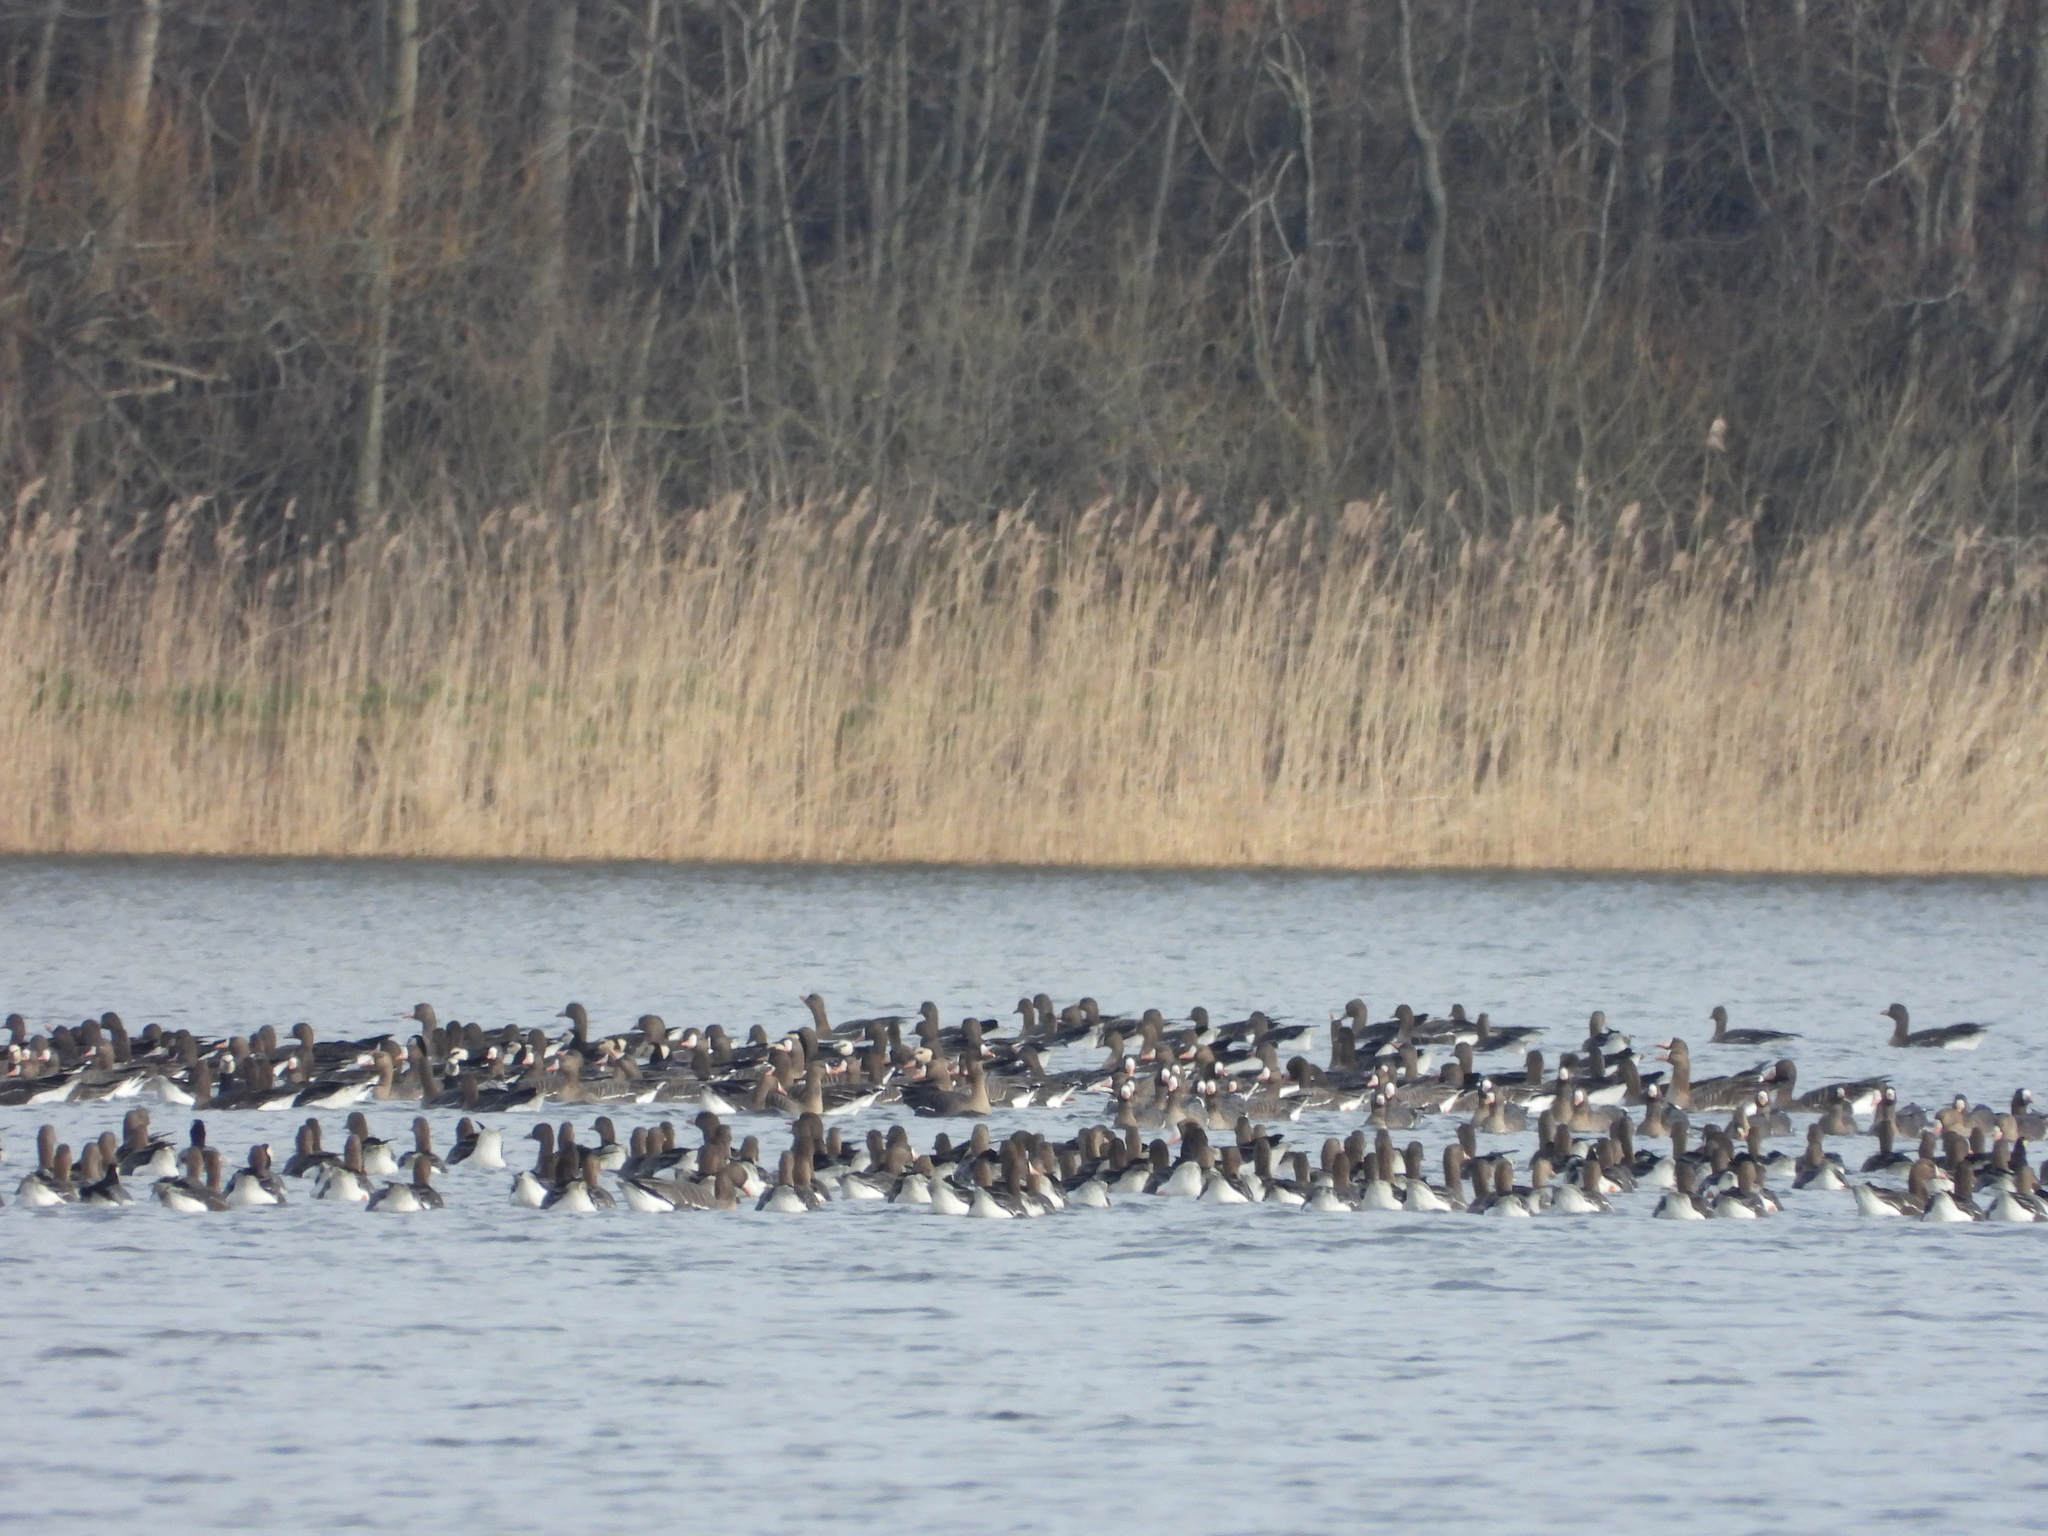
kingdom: Animalia
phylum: Chordata
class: Aves
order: Anseriformes
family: Anatidae
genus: Anser
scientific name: Anser albifrons
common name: Greater white-fronted goose
